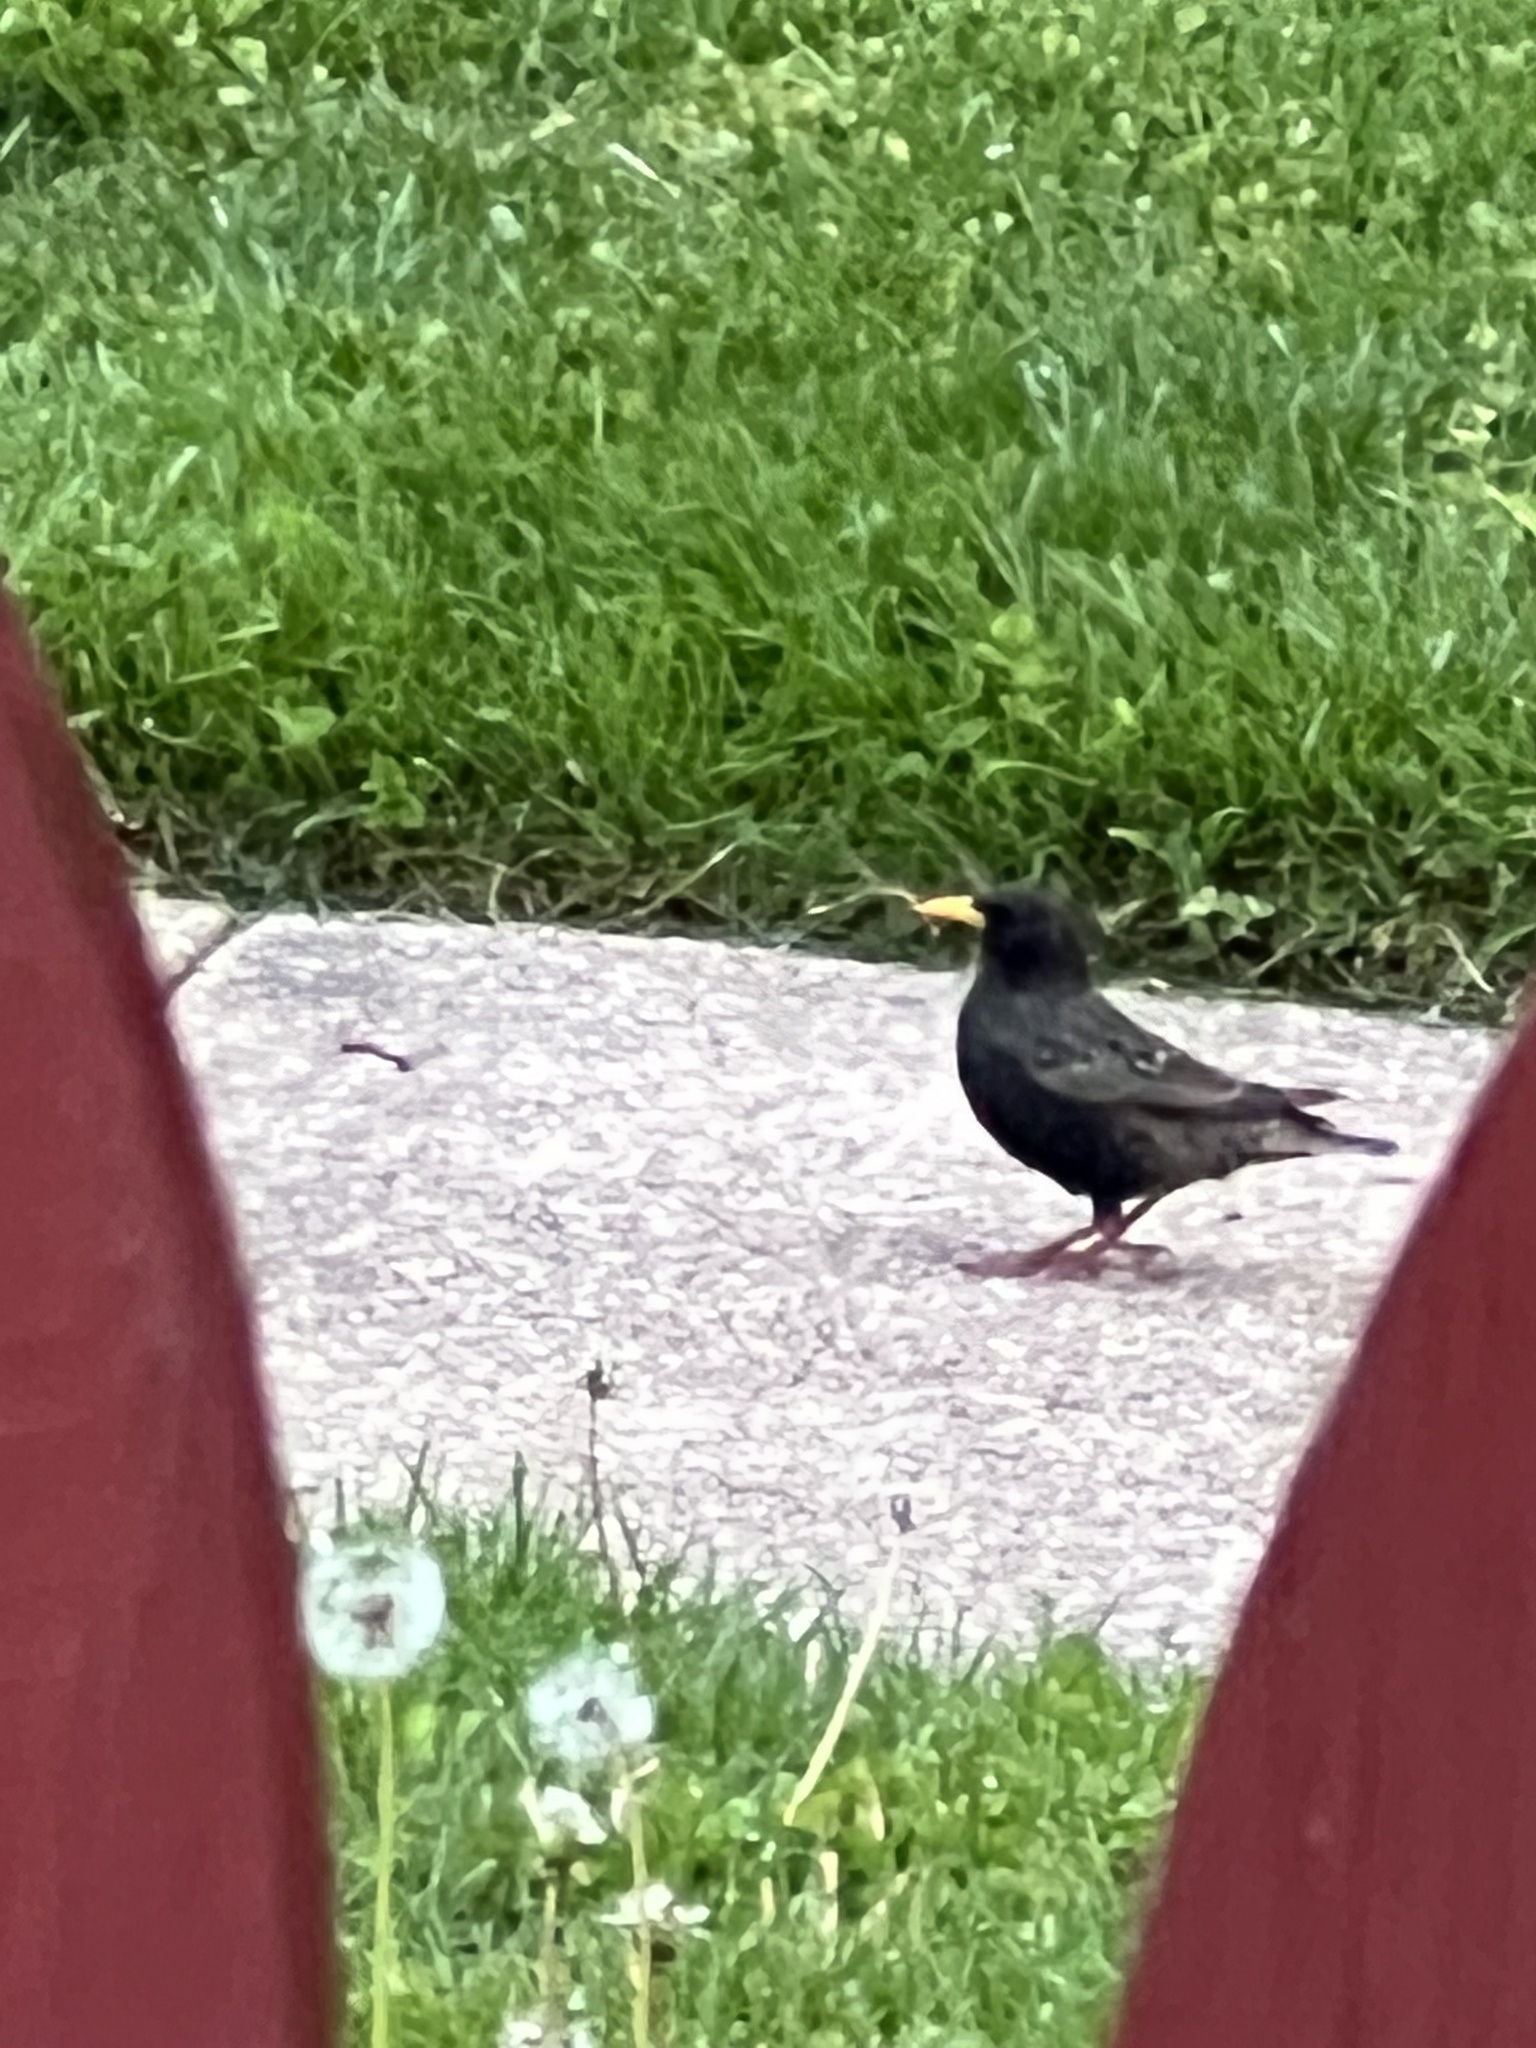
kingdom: Animalia
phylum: Chordata
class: Aves
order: Passeriformes
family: Sturnidae
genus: Sturnus
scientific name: Sturnus vulgaris
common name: Common starling
